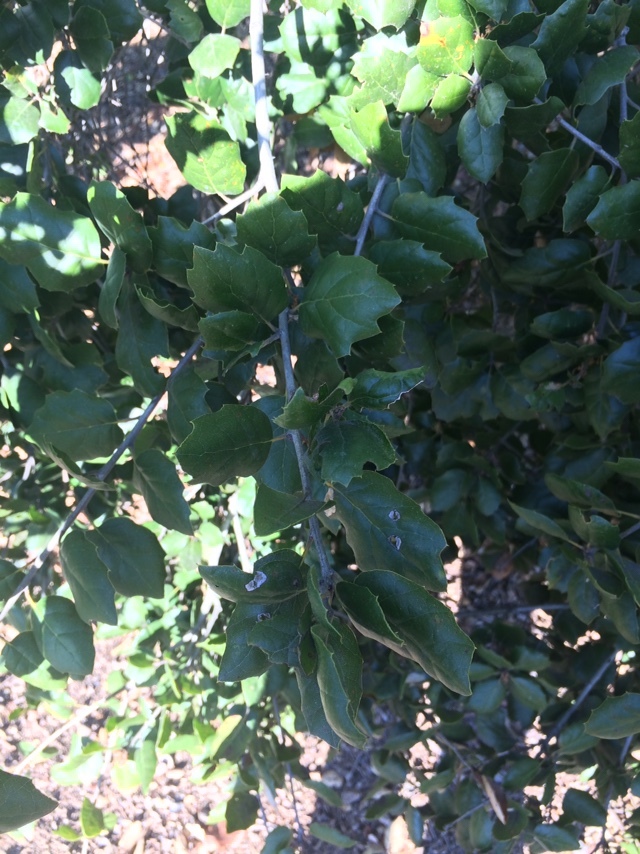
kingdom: Plantae
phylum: Tracheophyta
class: Magnoliopsida
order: Fagales
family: Fagaceae
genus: Quercus
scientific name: Quercus agrifolia
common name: California live oak
